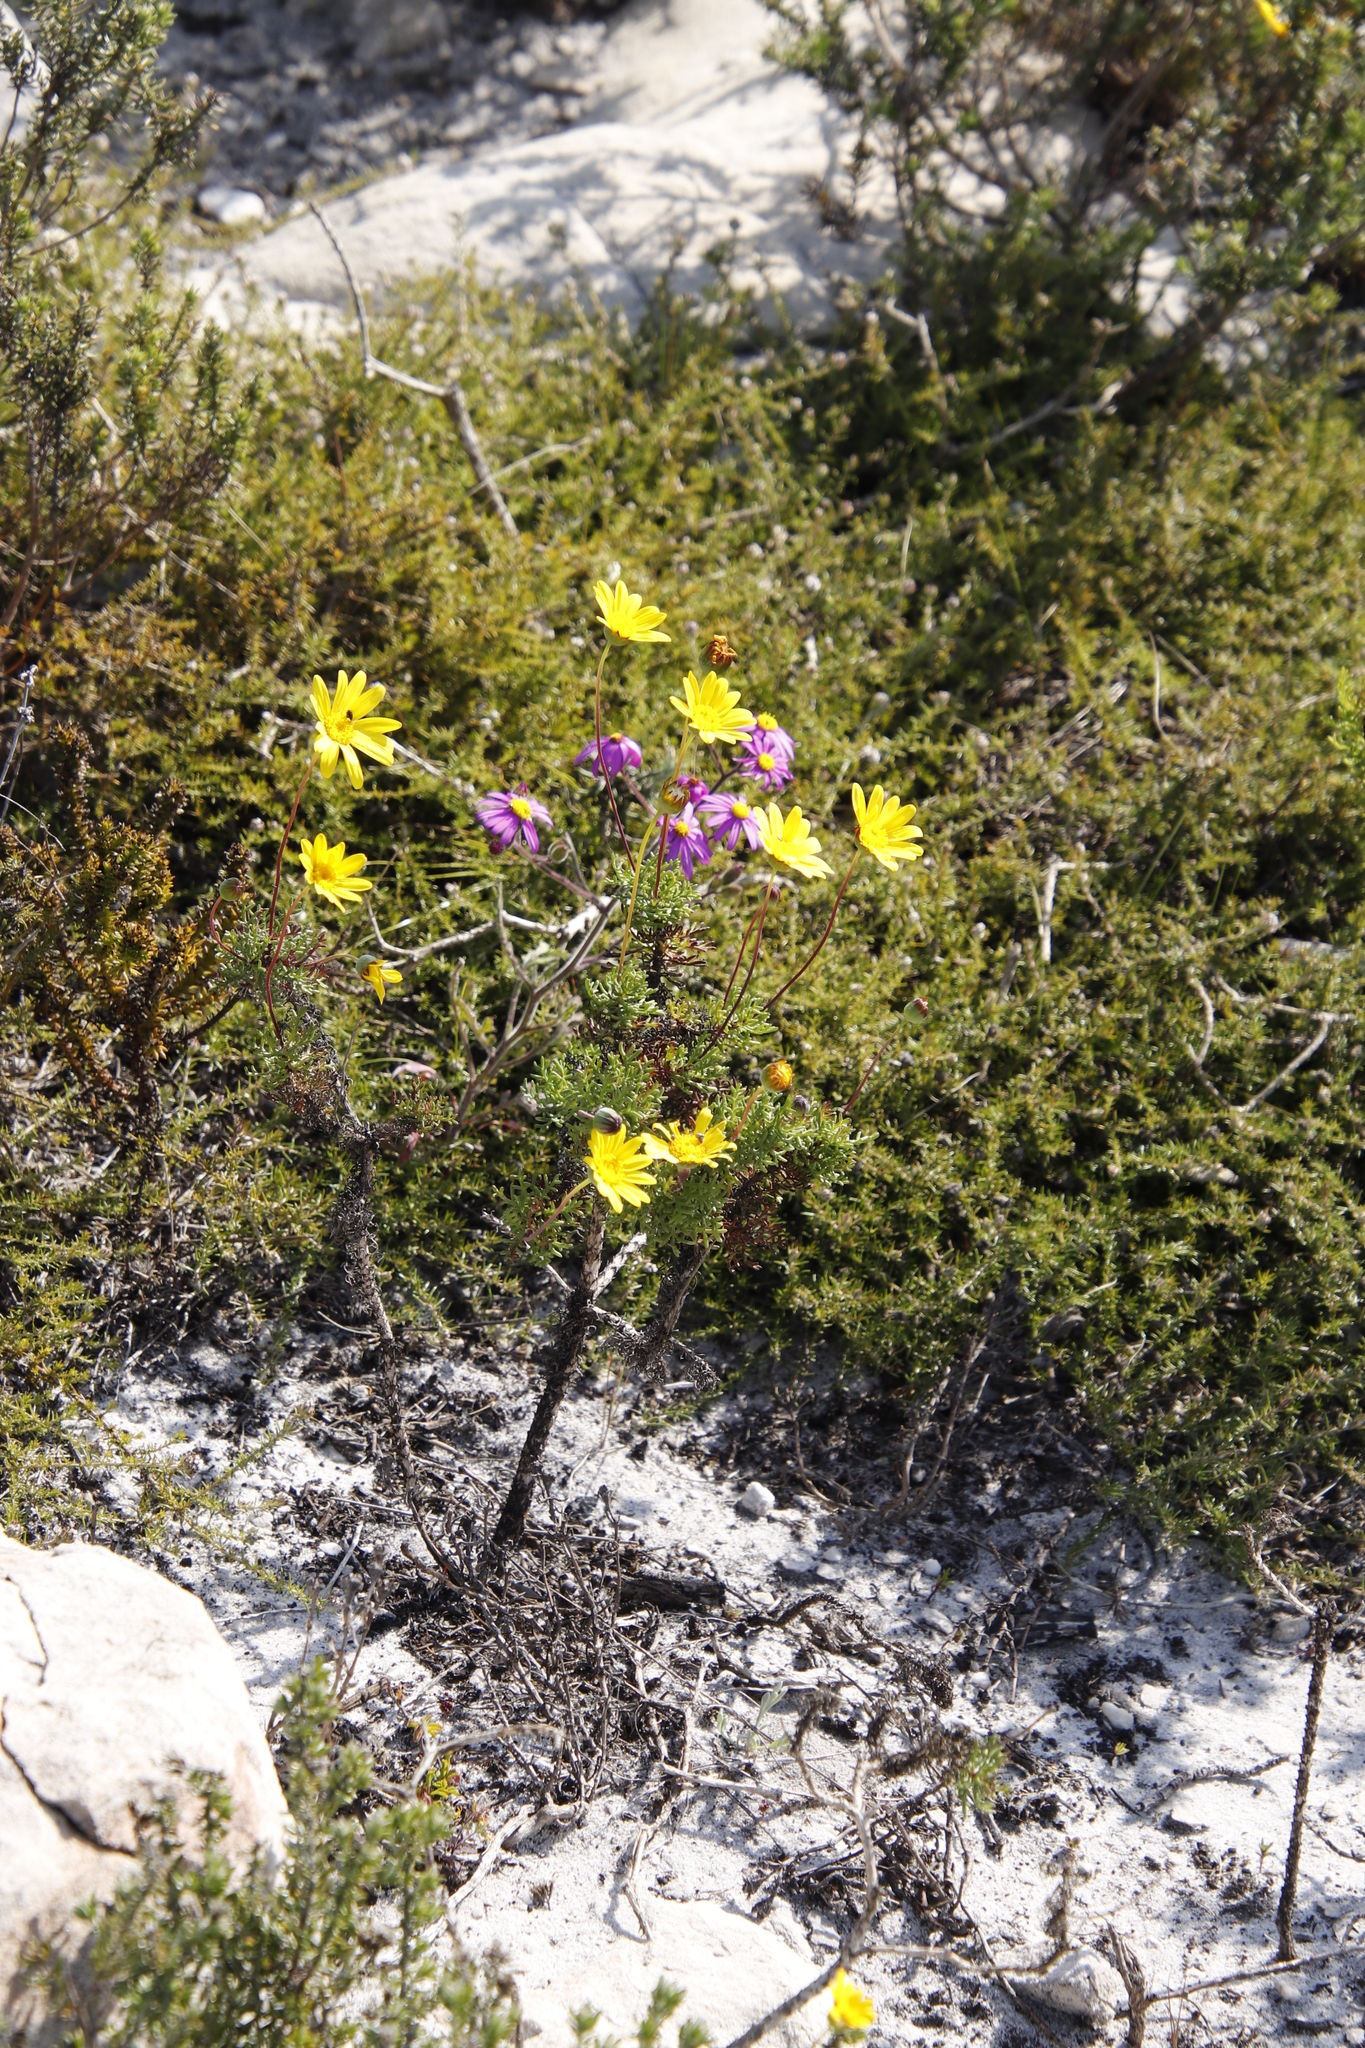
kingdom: Plantae
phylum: Tracheophyta
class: Magnoliopsida
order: Asterales
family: Asteraceae
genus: Euryops
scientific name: Euryops abrotanifolius
